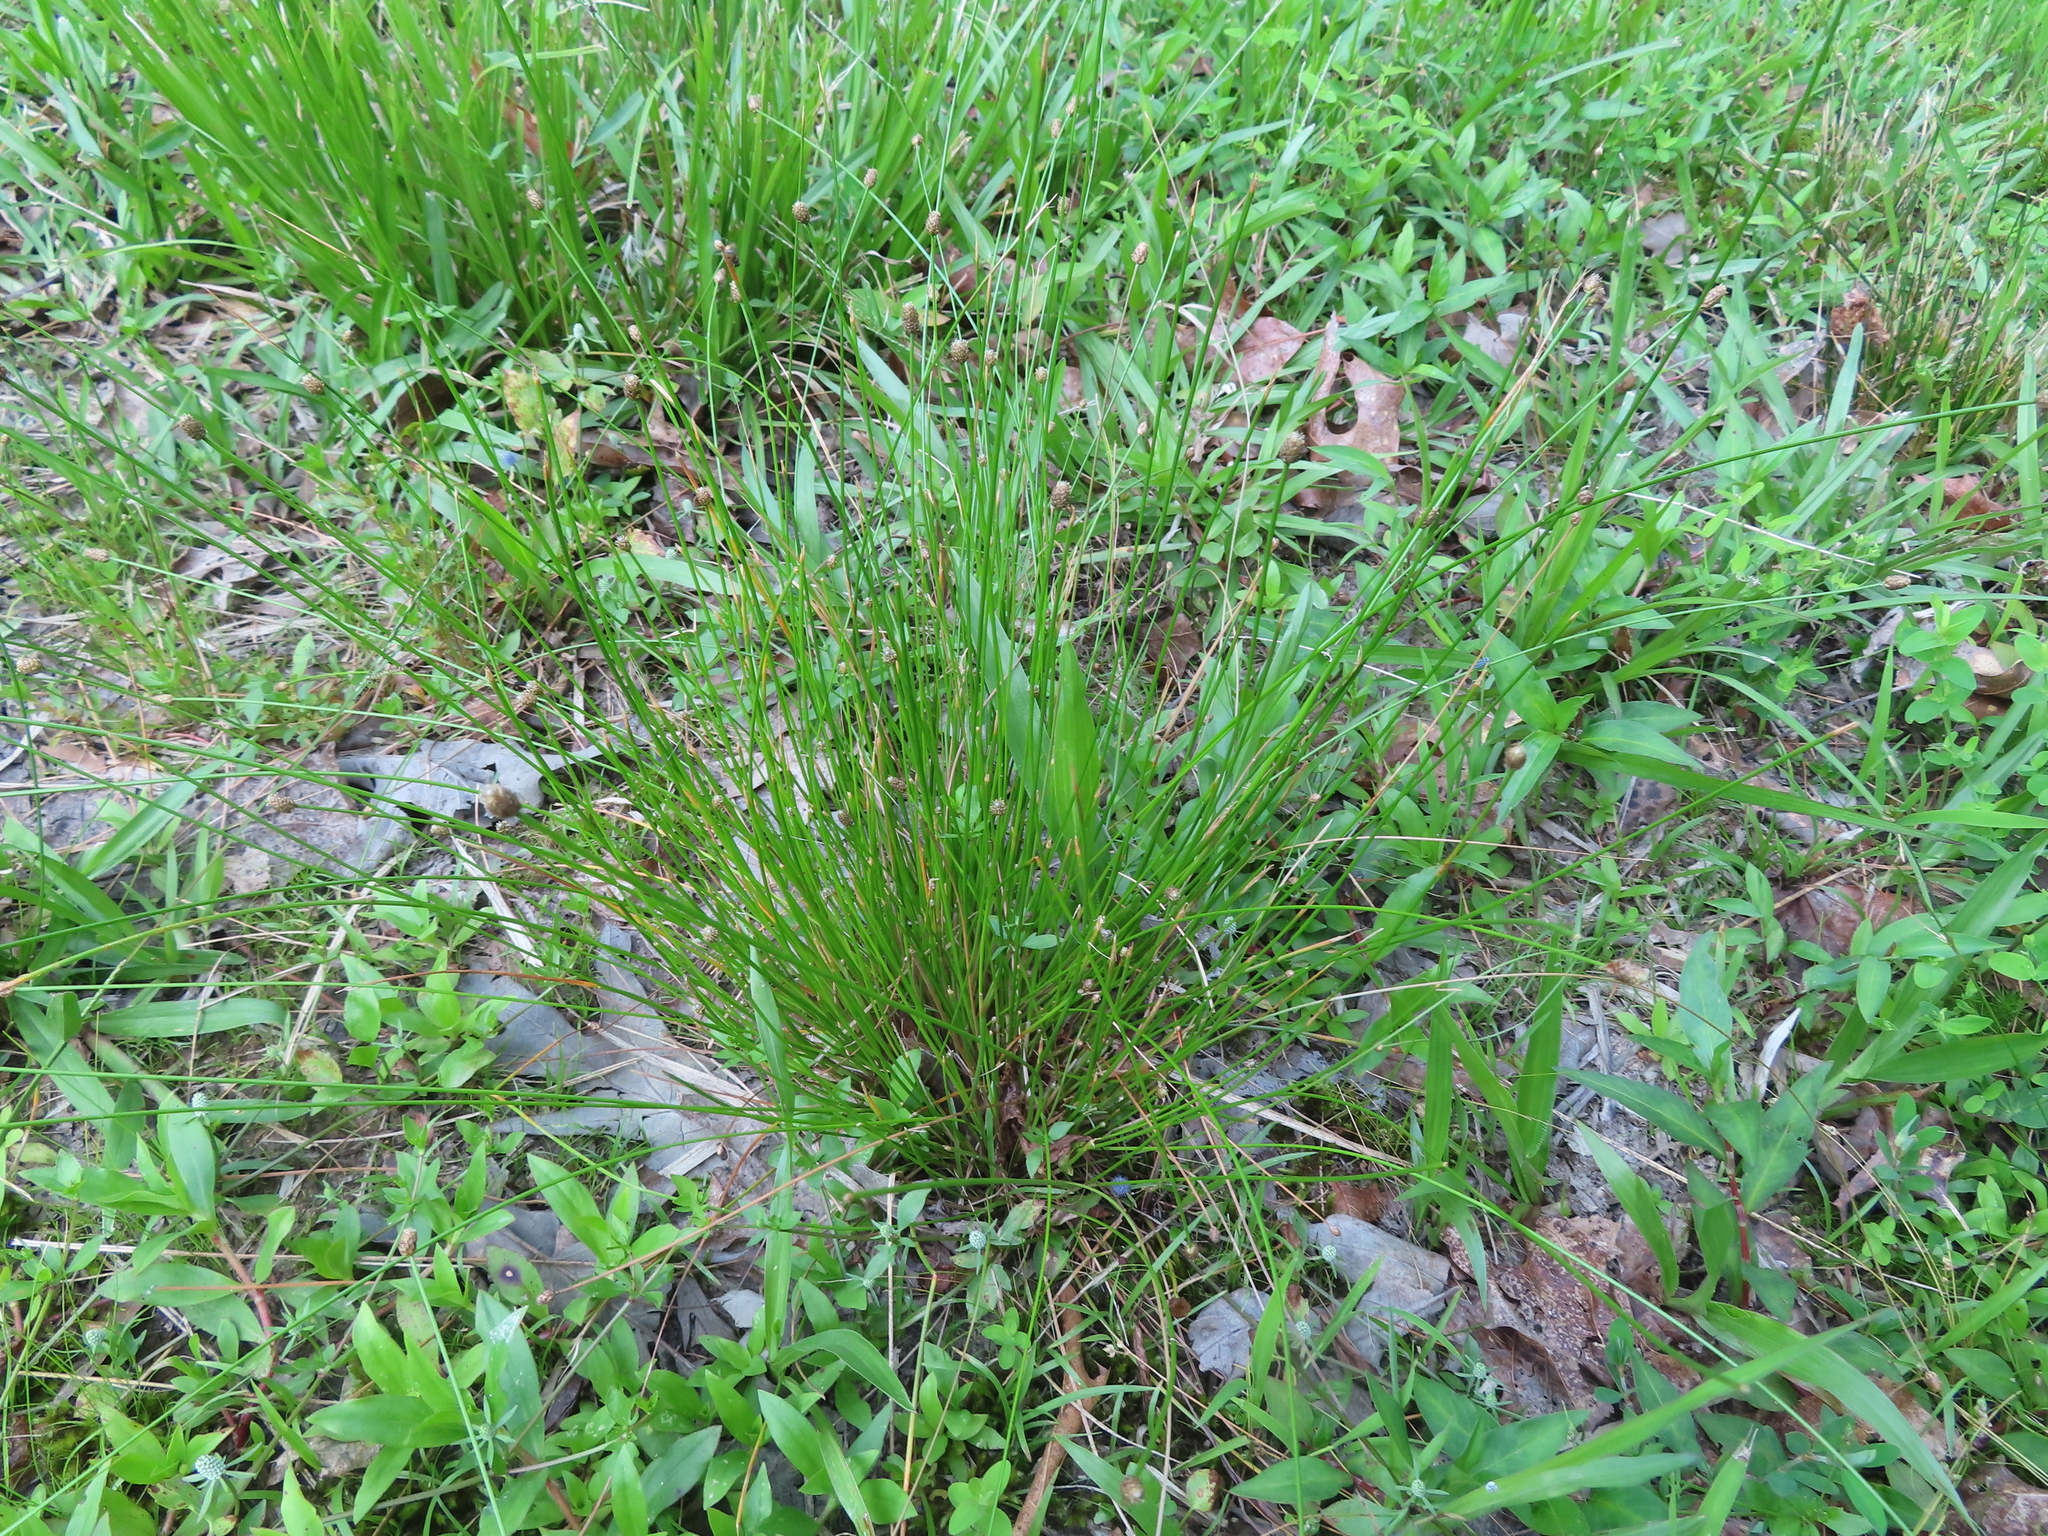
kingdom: Plantae
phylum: Tracheophyta
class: Liliopsida
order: Poales
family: Cyperaceae
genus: Eleocharis
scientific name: Eleocharis obtusa
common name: Blunt spikerush
